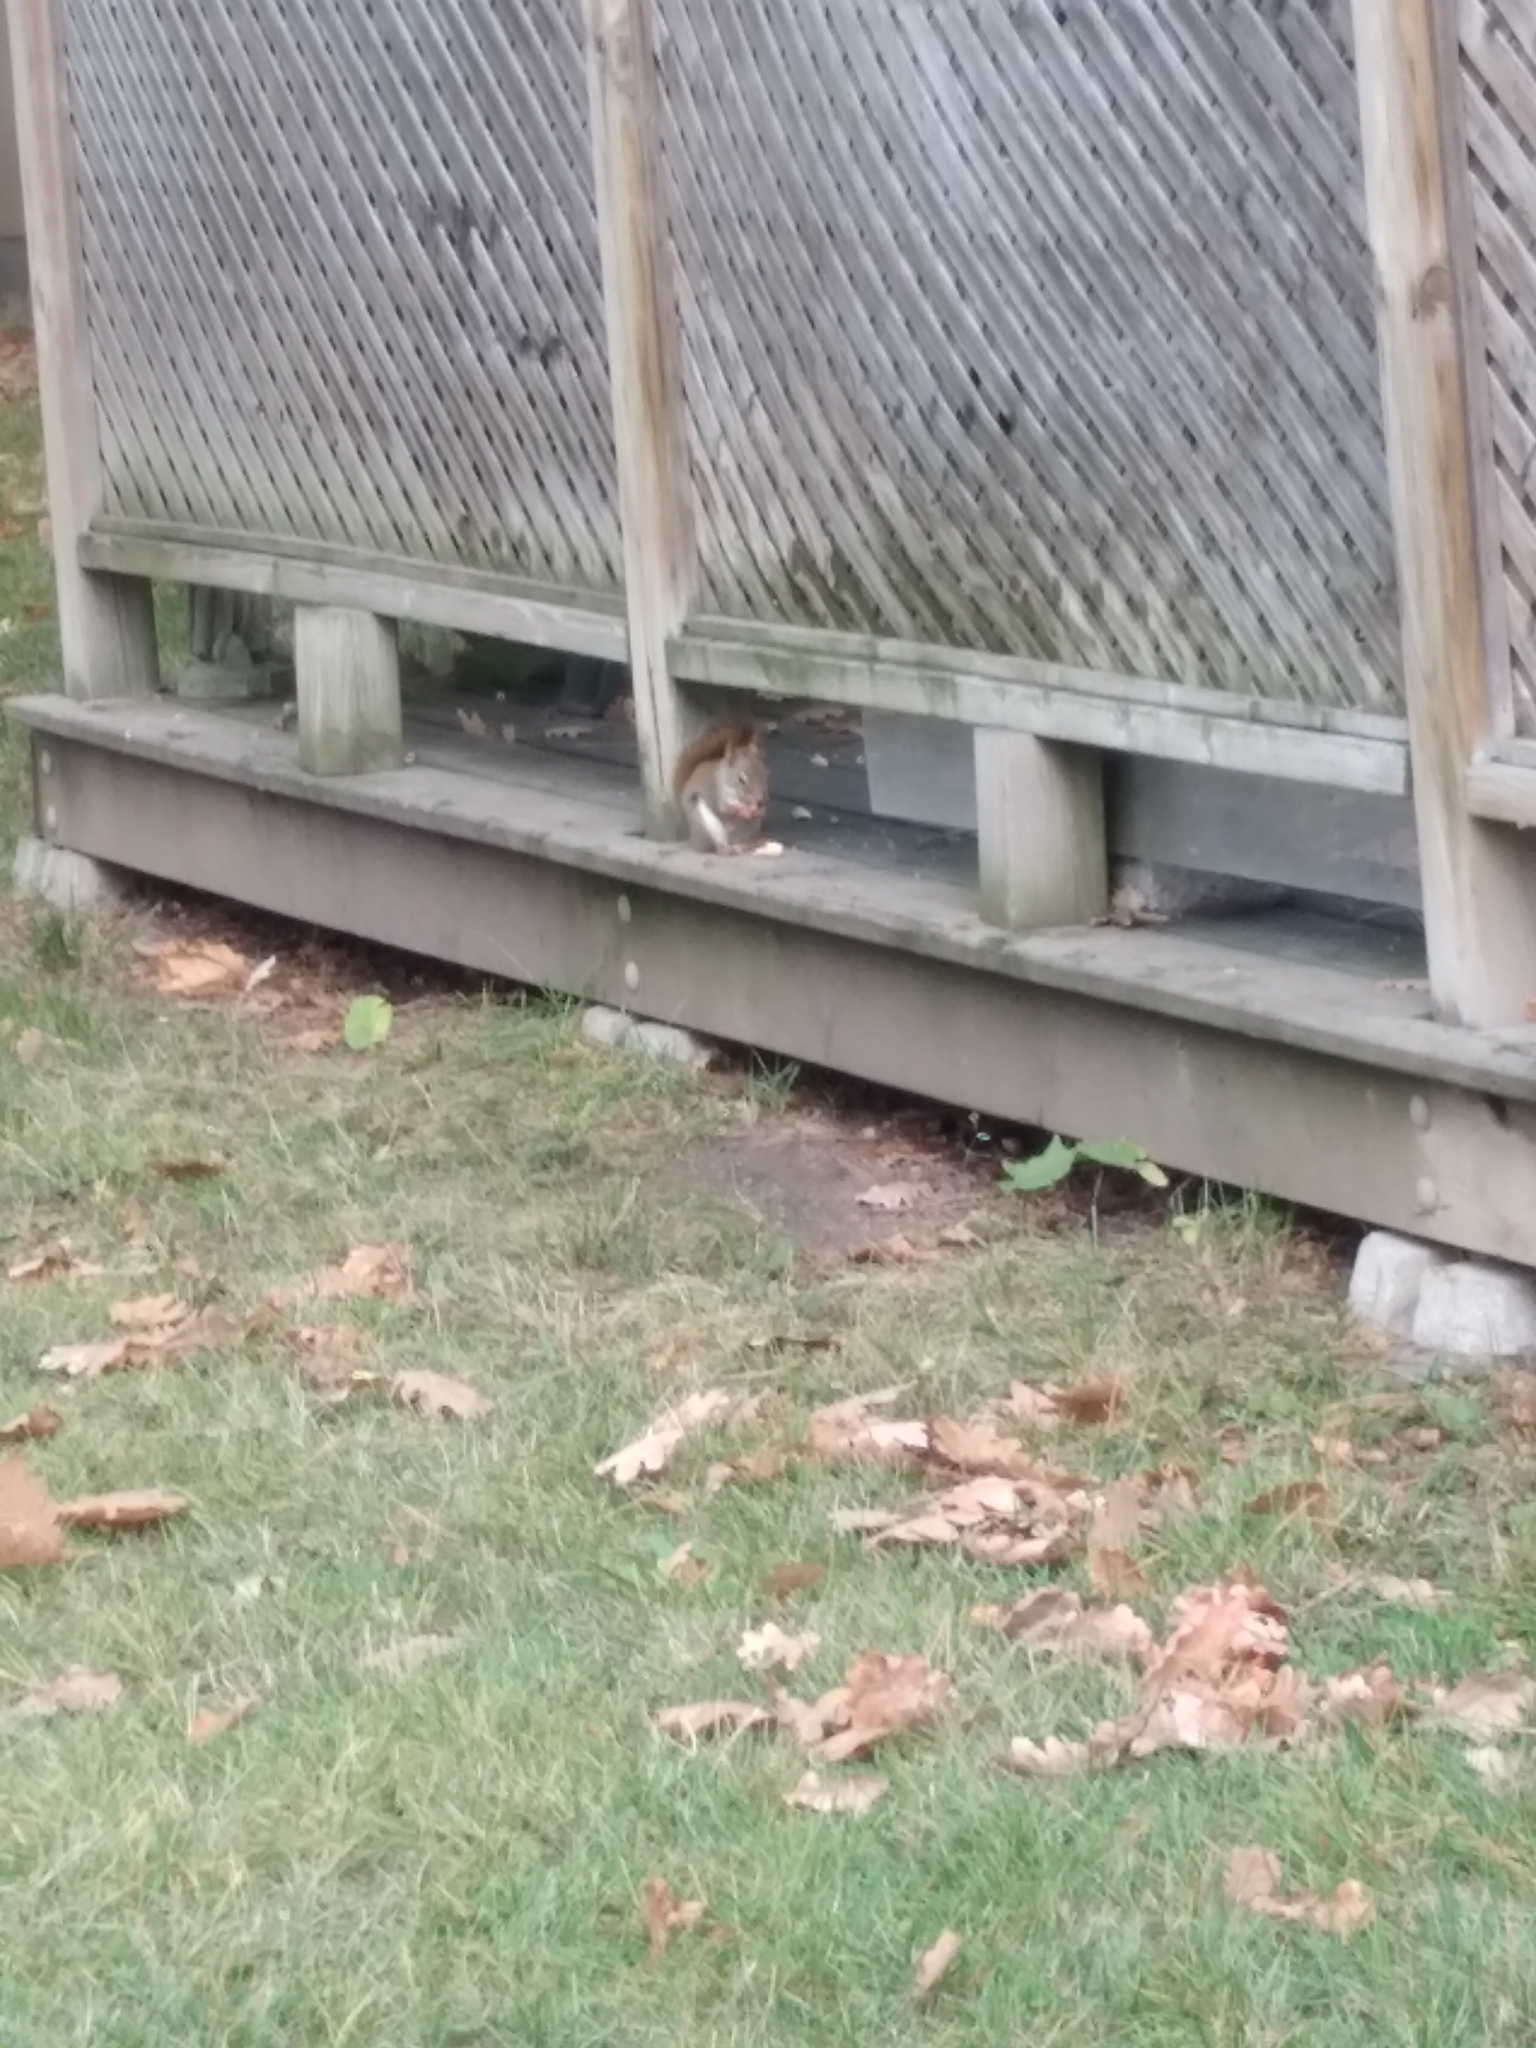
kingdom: Animalia
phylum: Chordata
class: Mammalia
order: Rodentia
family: Sciuridae
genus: Tamiasciurus
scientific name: Tamiasciurus hudsonicus
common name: Red squirrel
